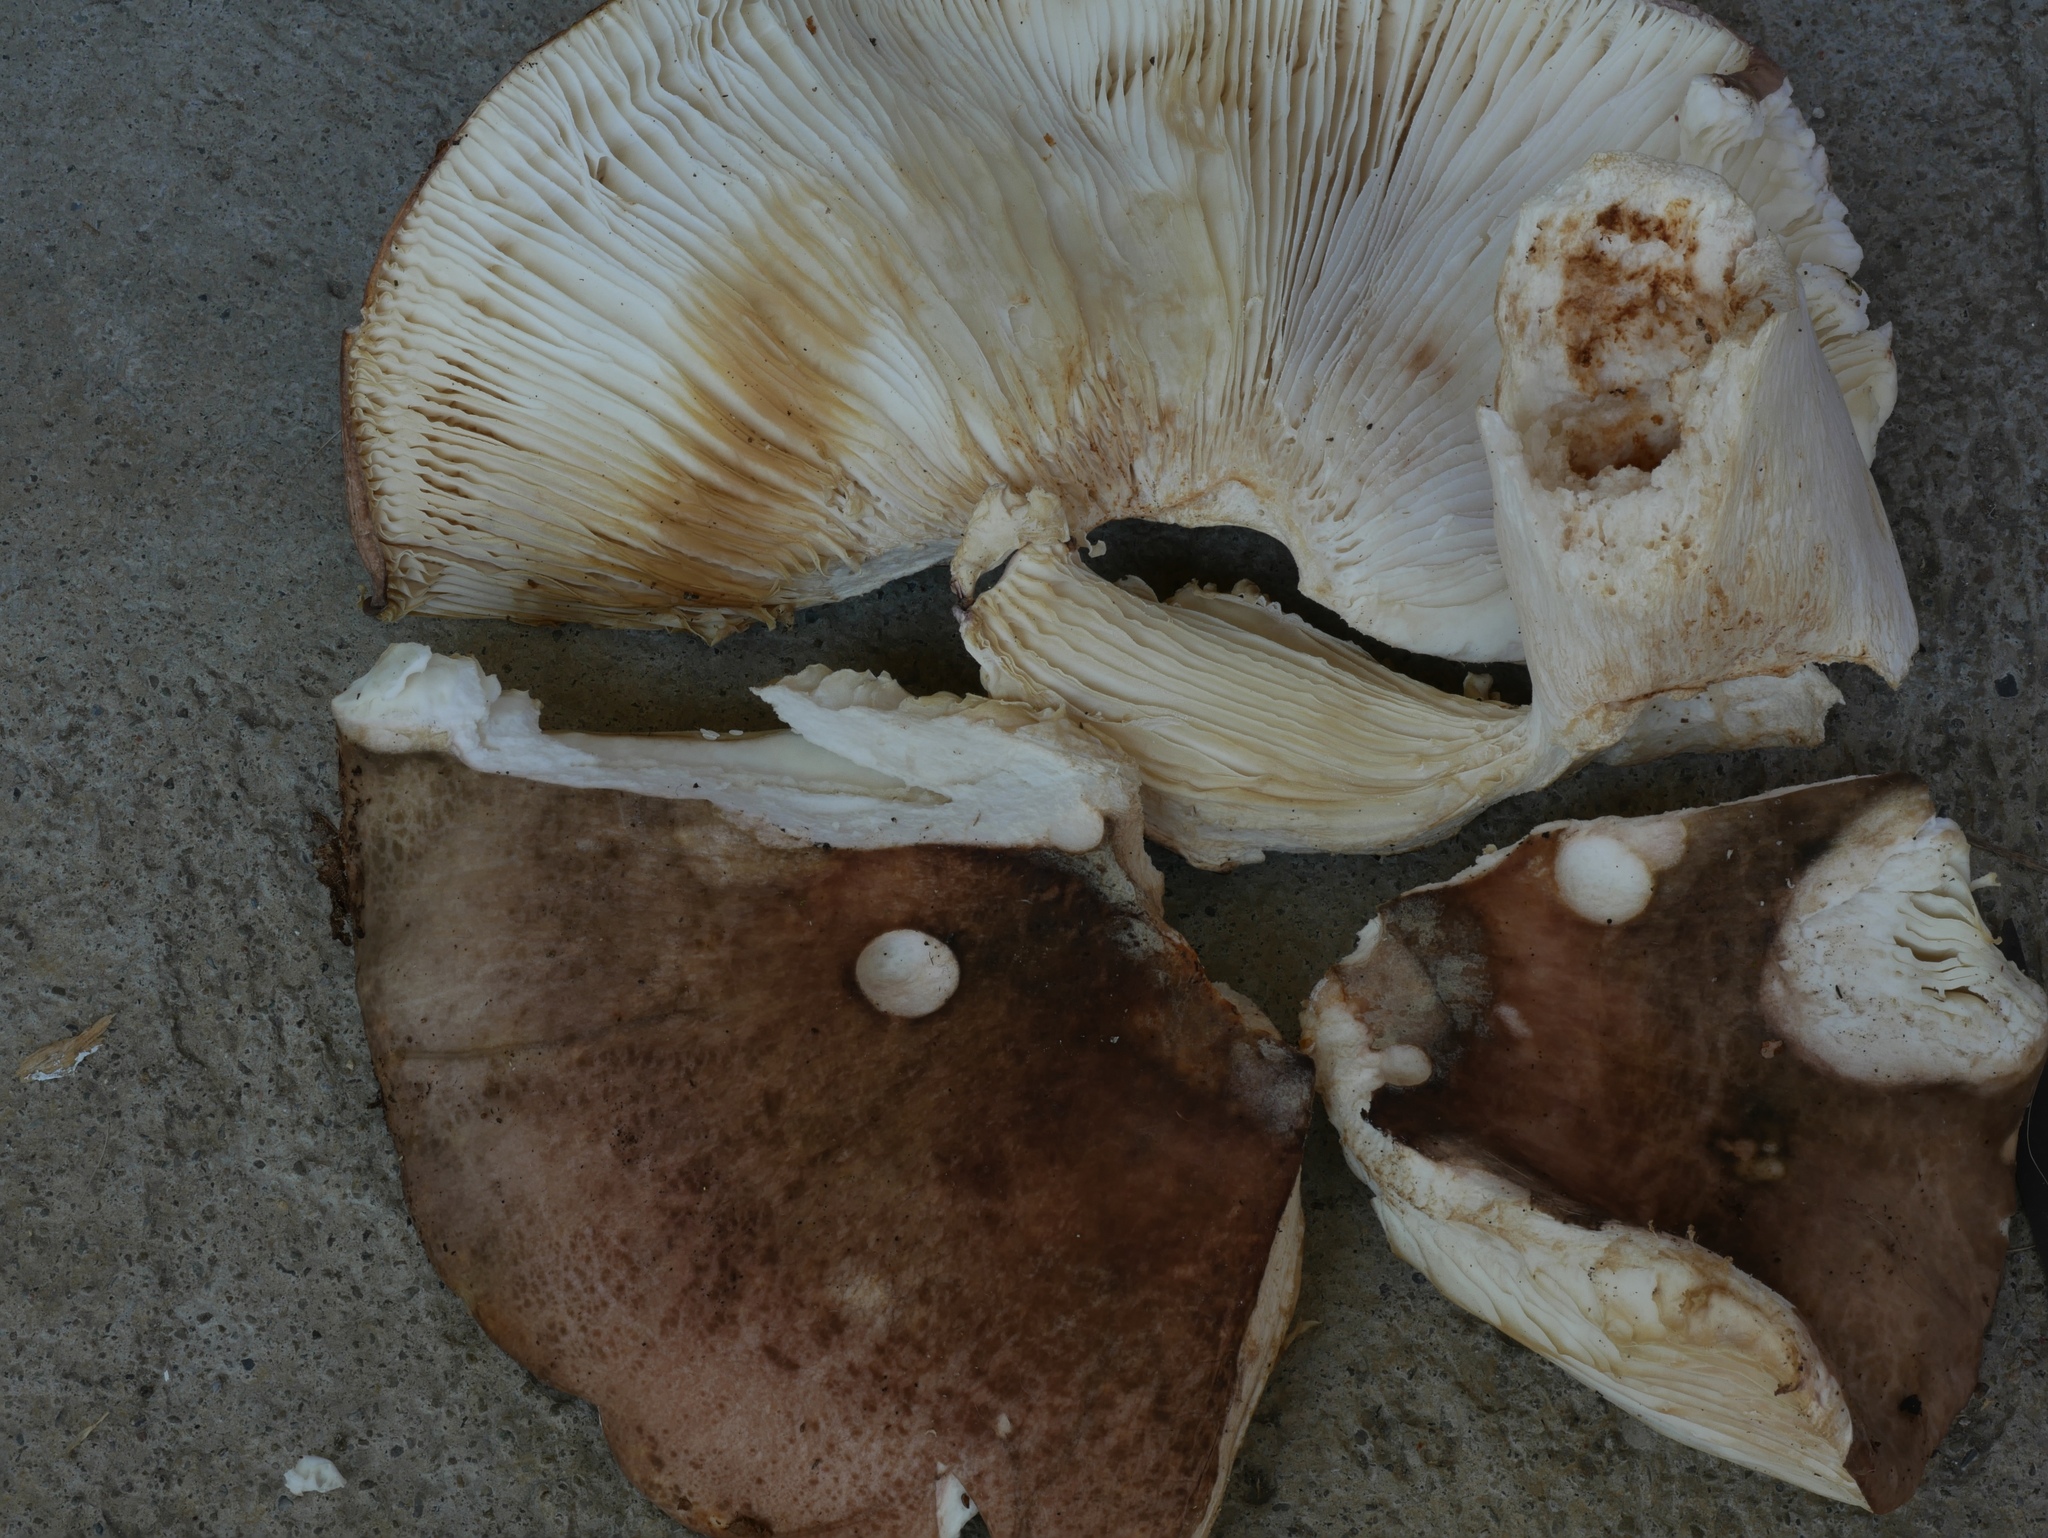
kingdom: Fungi
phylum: Basidiomycota
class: Agaricomycetes
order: Russulales
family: Russulaceae
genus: Russula
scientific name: Russula parvovirescens
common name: Blue-green cracking russula
